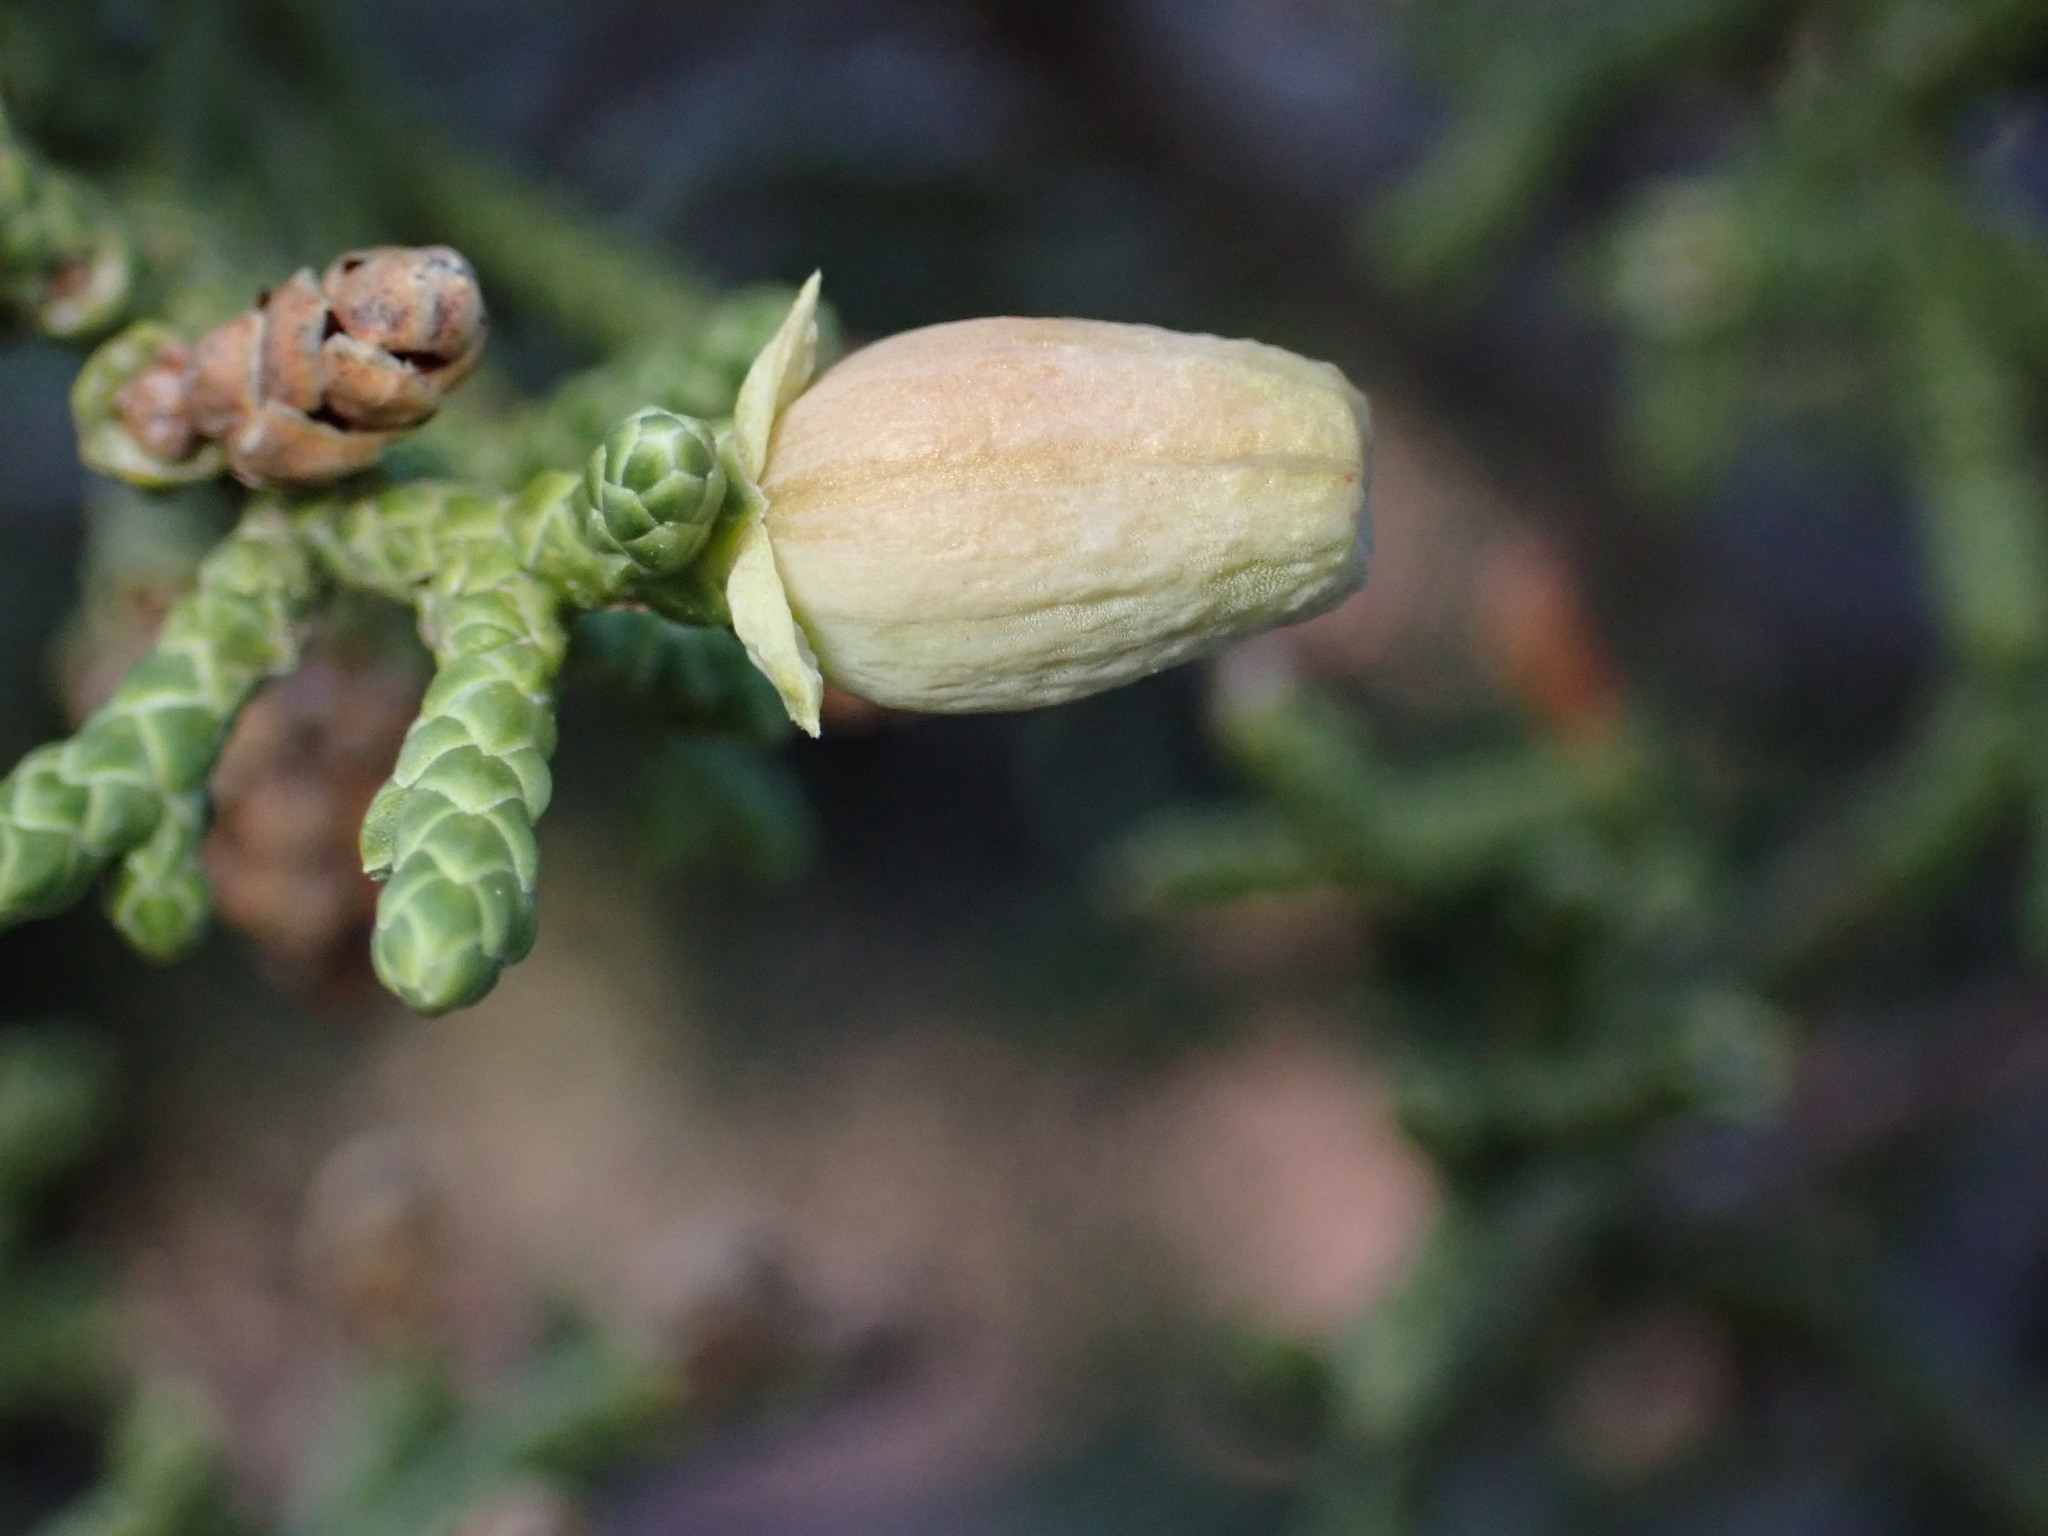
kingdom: Animalia
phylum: Arthropoda
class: Insecta
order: Diptera
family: Cecidomyiidae
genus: Walshomyia
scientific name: Walshomyia juniperina
